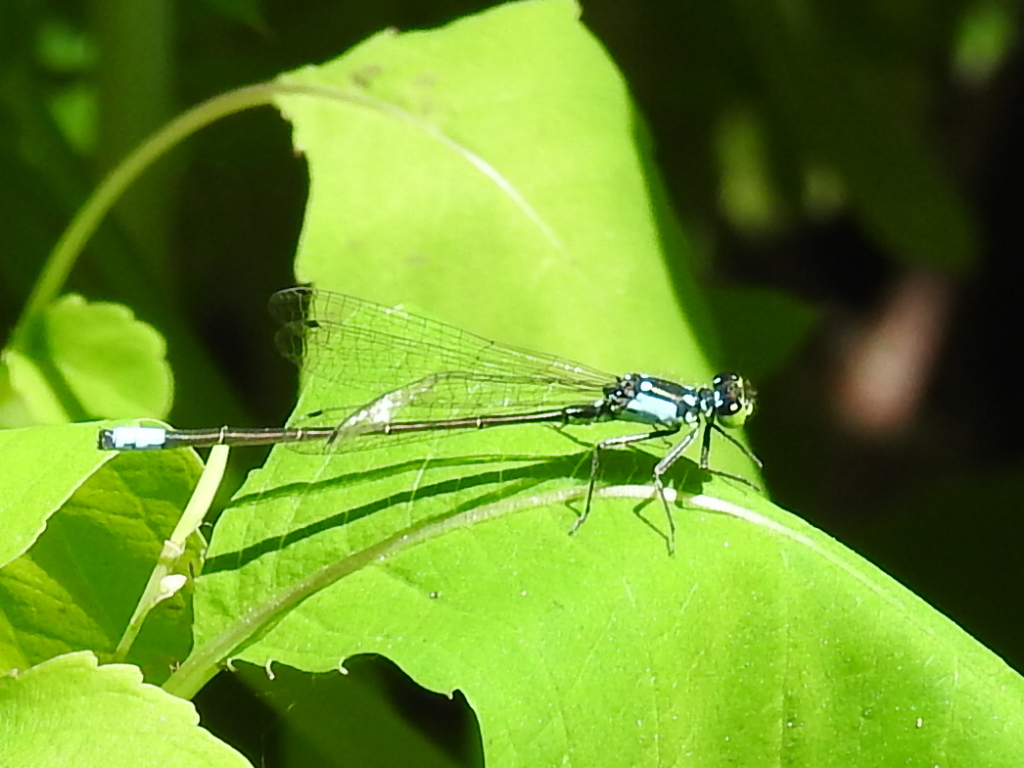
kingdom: Animalia
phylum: Arthropoda
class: Insecta
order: Odonata
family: Coenagrionidae
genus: Ischnura
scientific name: Ischnura cervula
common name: Pacific forktail
